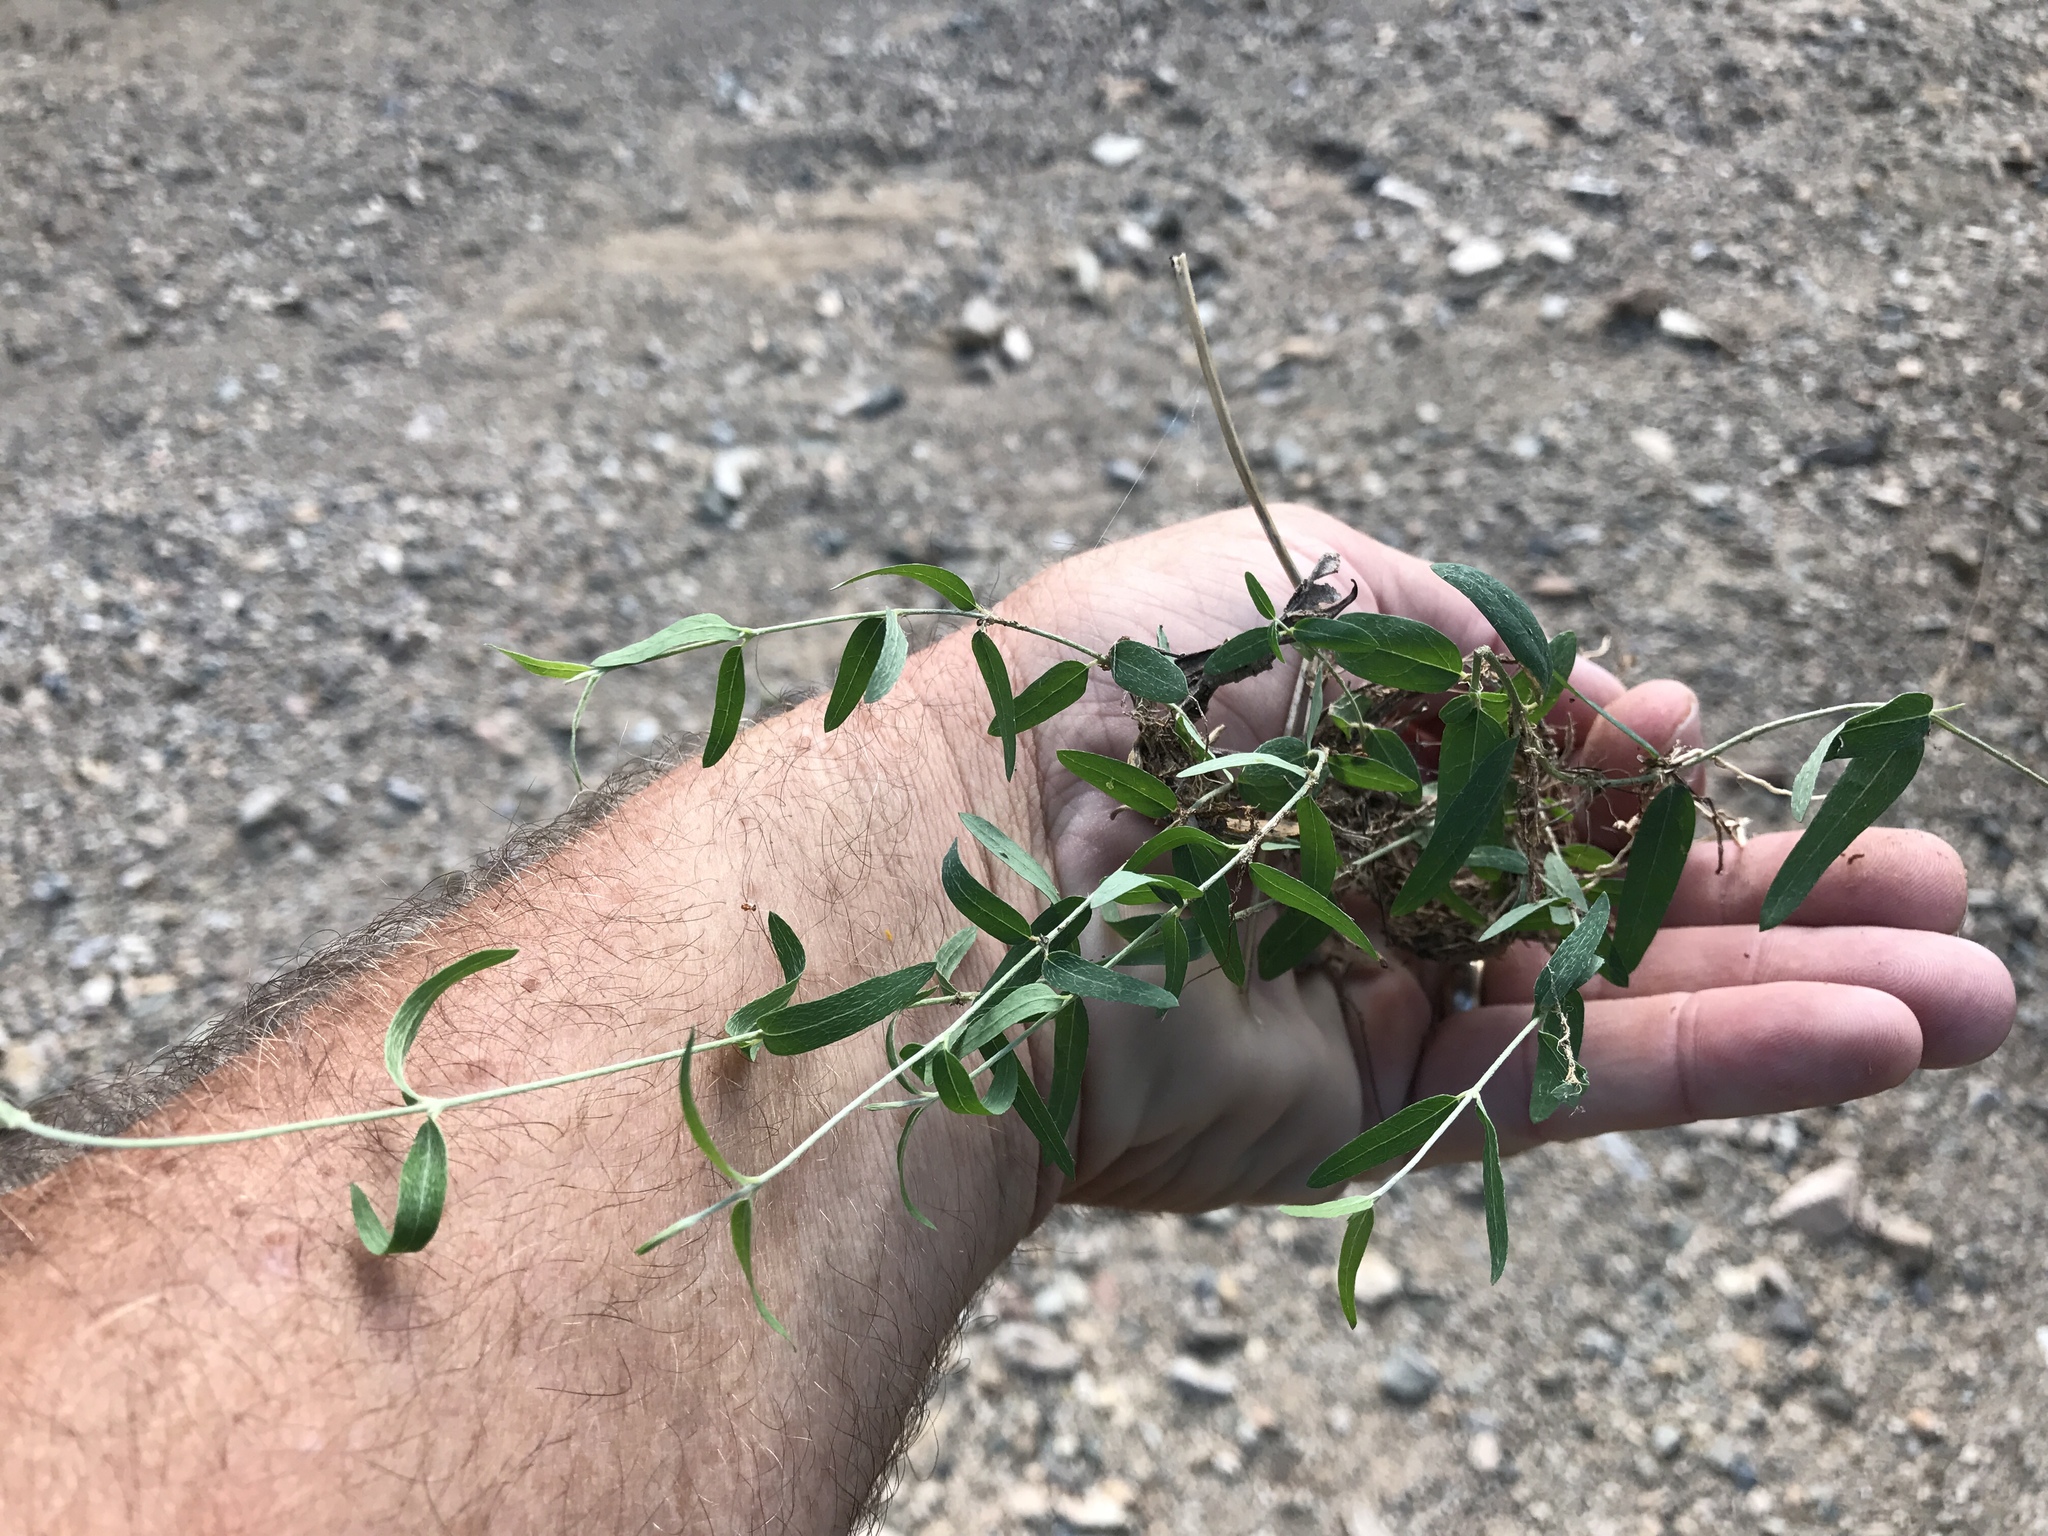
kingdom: Plantae
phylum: Tracheophyta
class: Magnoliopsida
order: Malpighiales
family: Malpighiaceae
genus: Cottsia
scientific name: Cottsia gracilis
